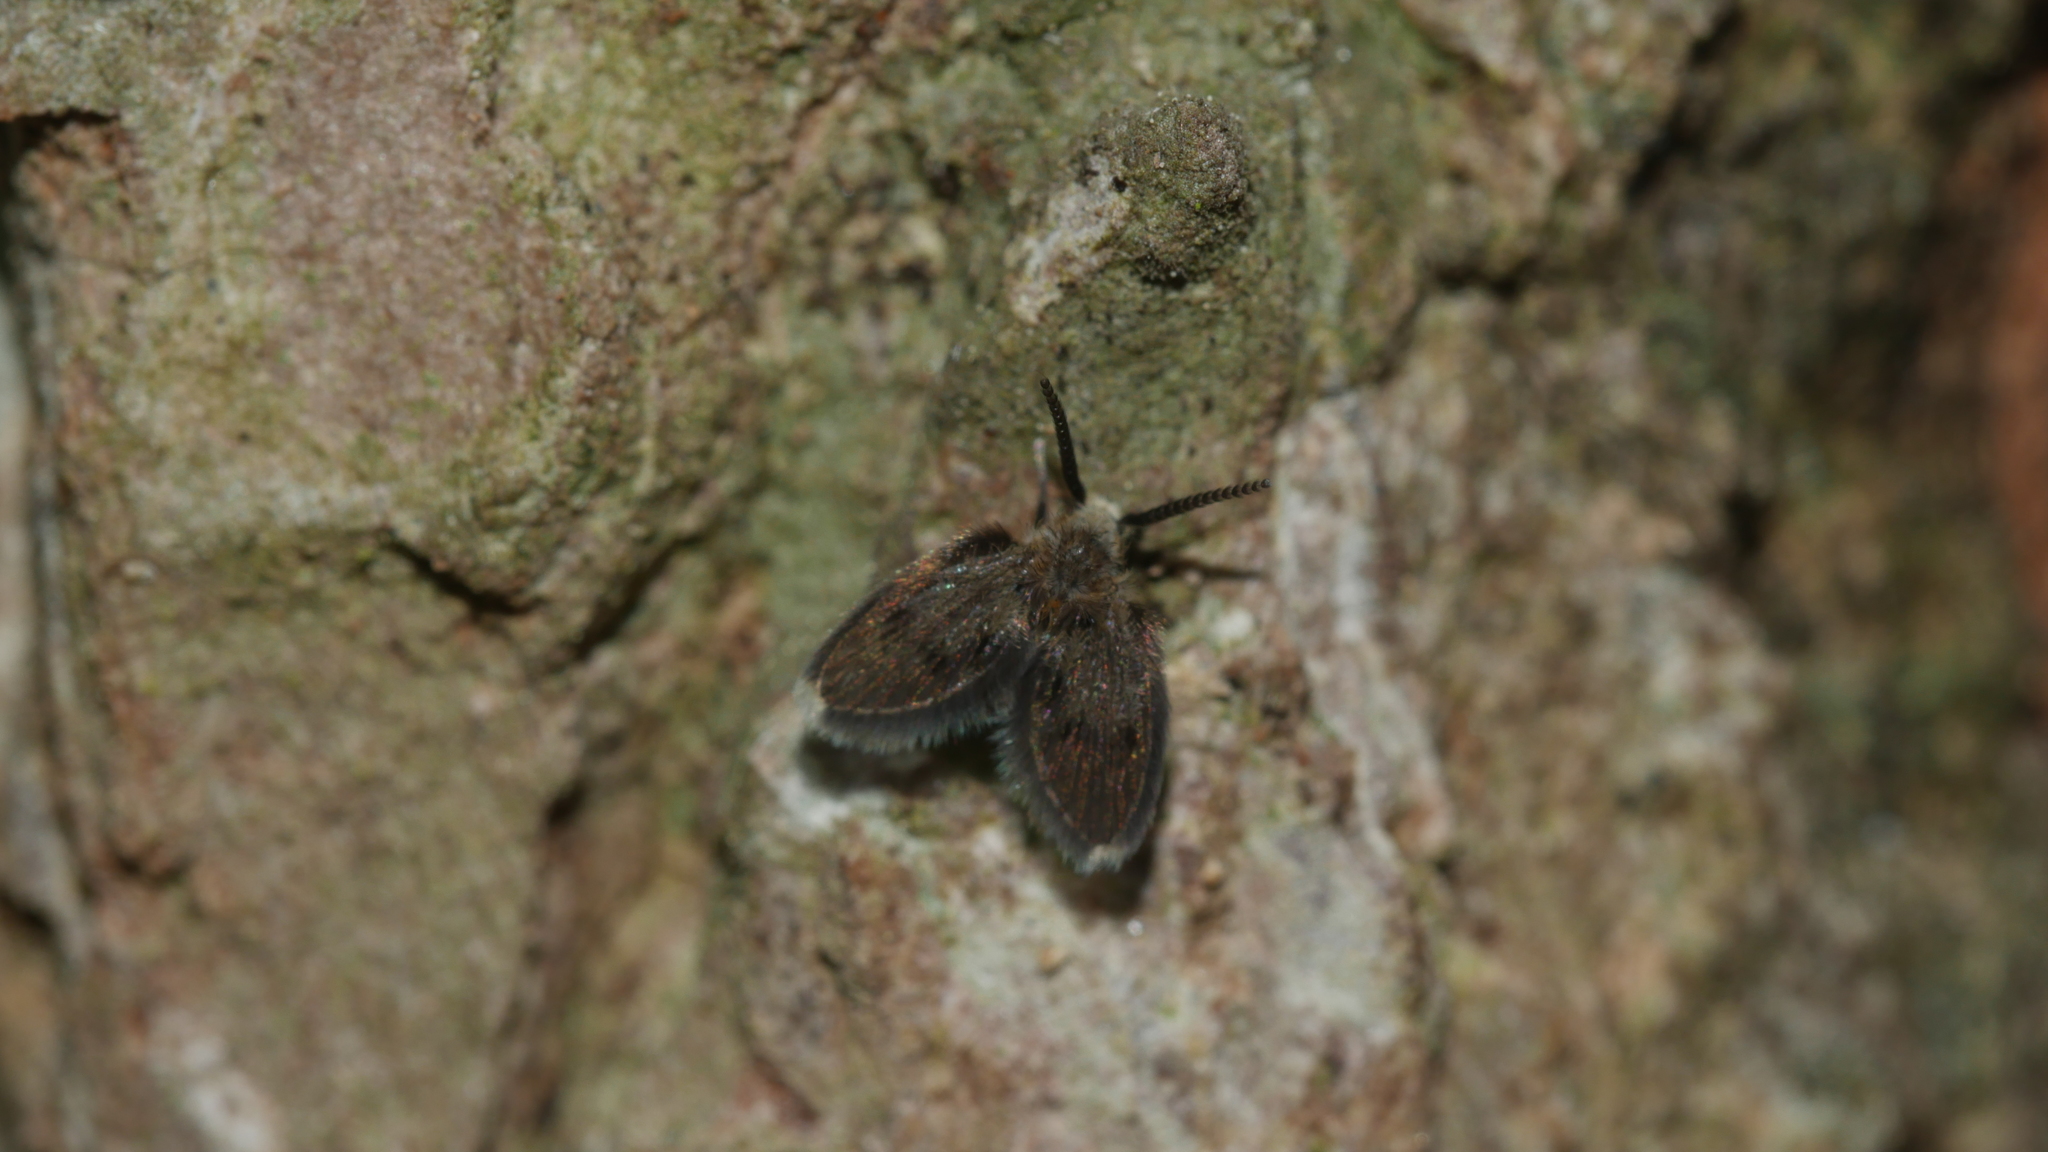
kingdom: Animalia
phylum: Arthropoda
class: Insecta
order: Diptera
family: Psychodidae
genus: Lepiseodina
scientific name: Lepiseodina
